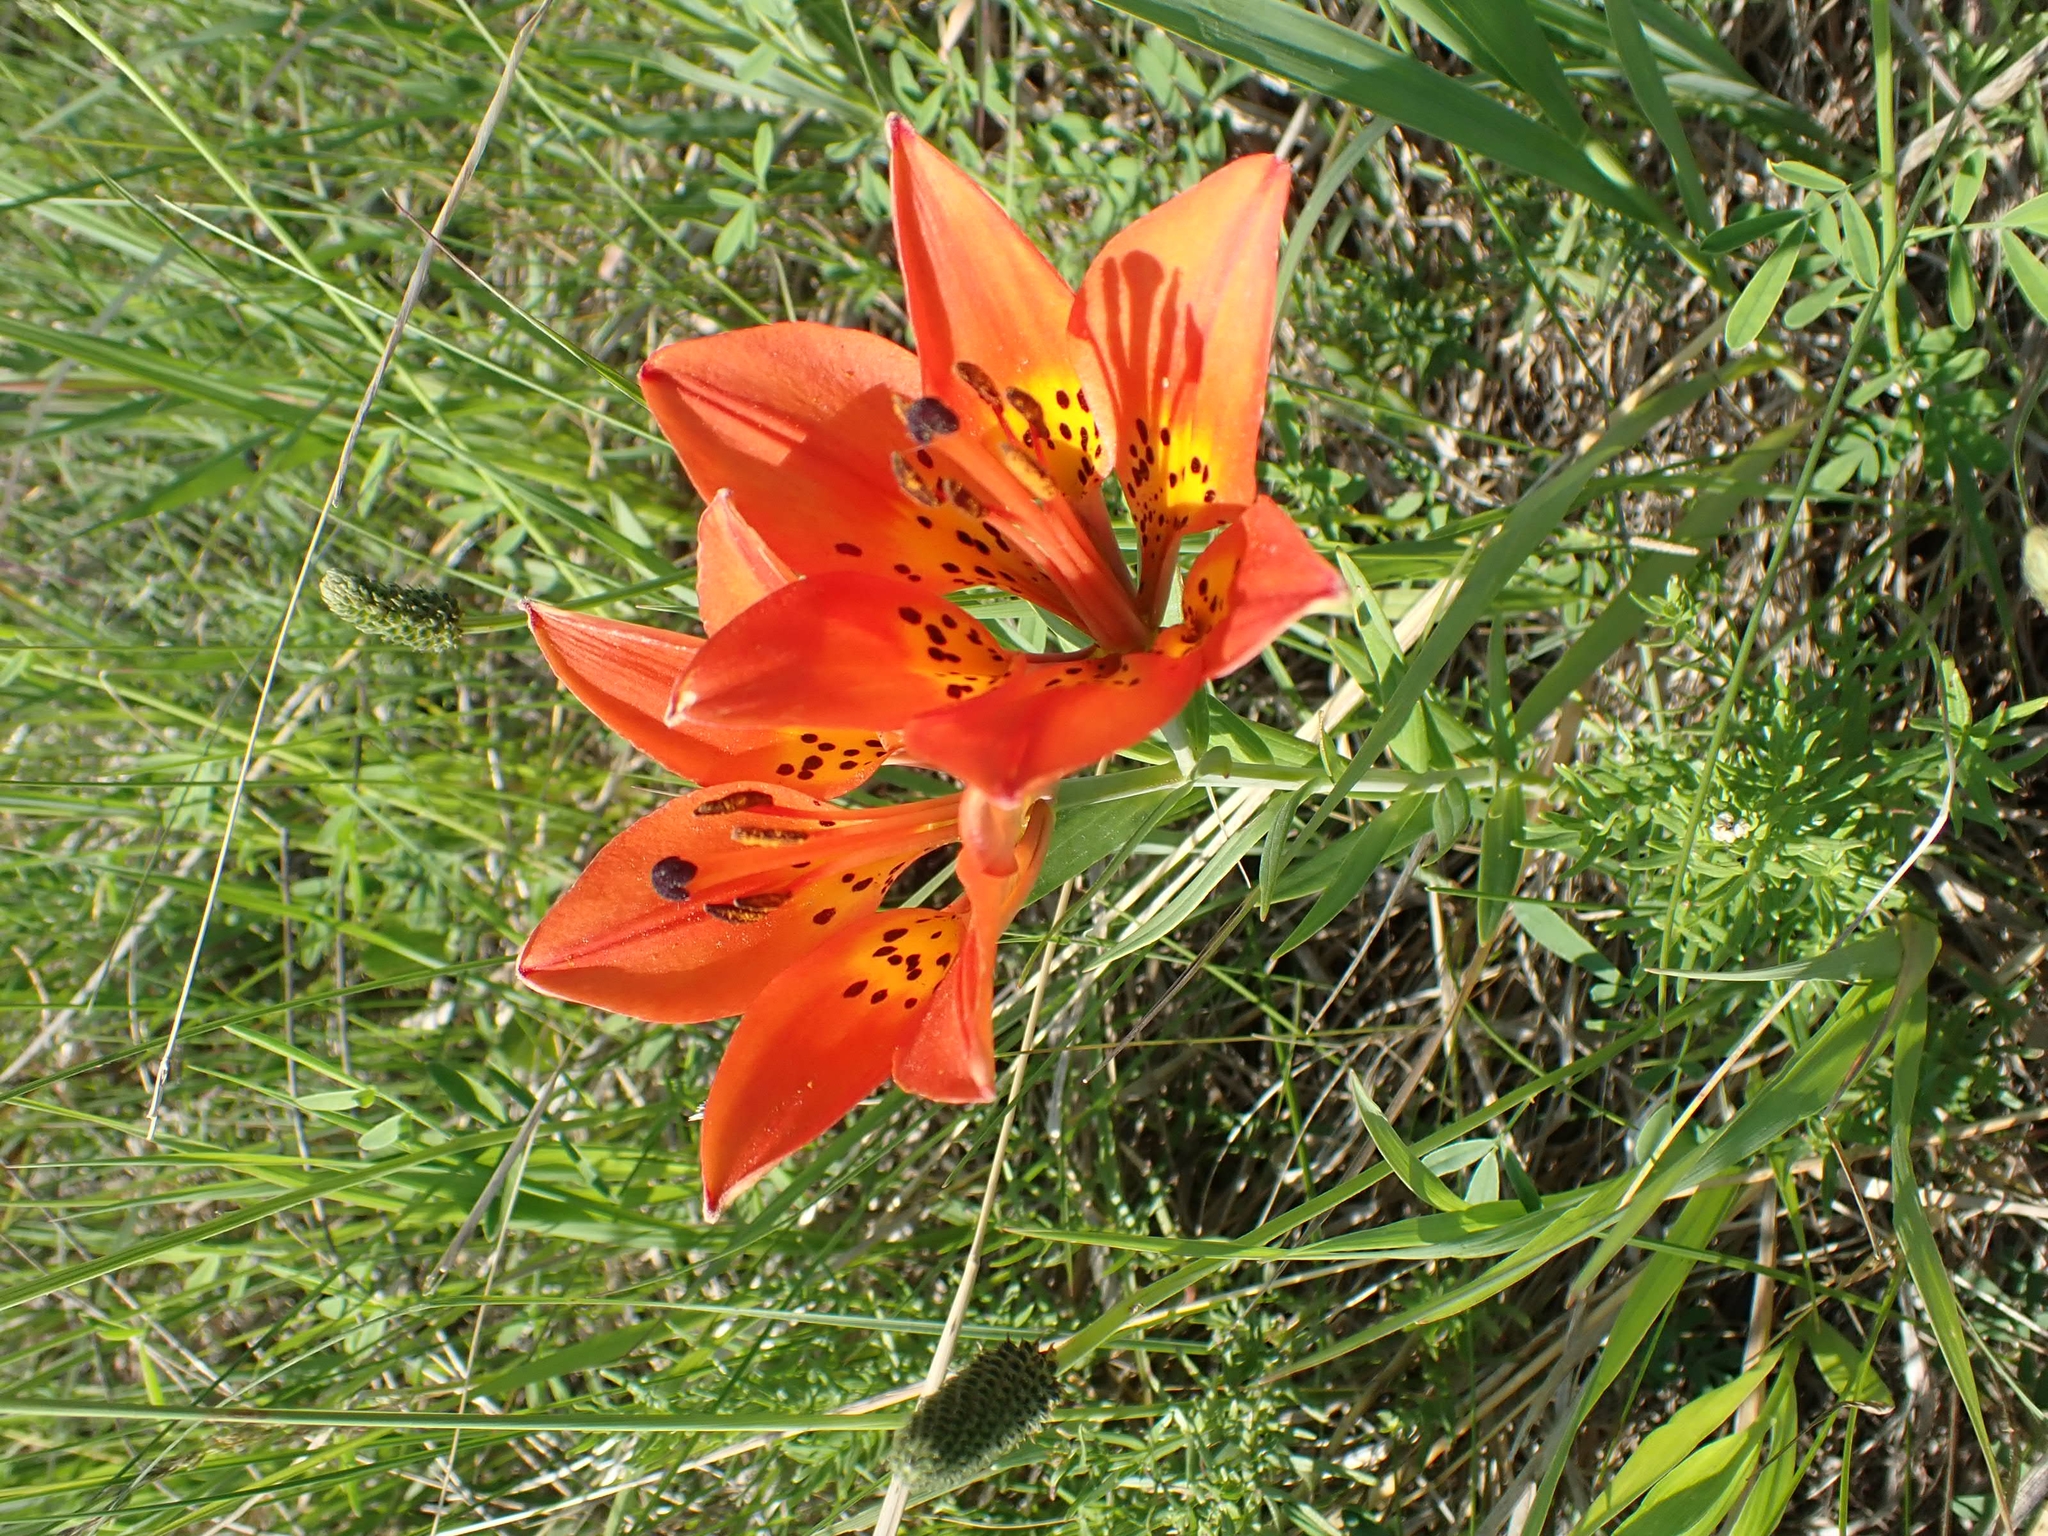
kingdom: Plantae
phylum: Tracheophyta
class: Liliopsida
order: Liliales
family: Liliaceae
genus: Lilium
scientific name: Lilium philadelphicum
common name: Red lily
